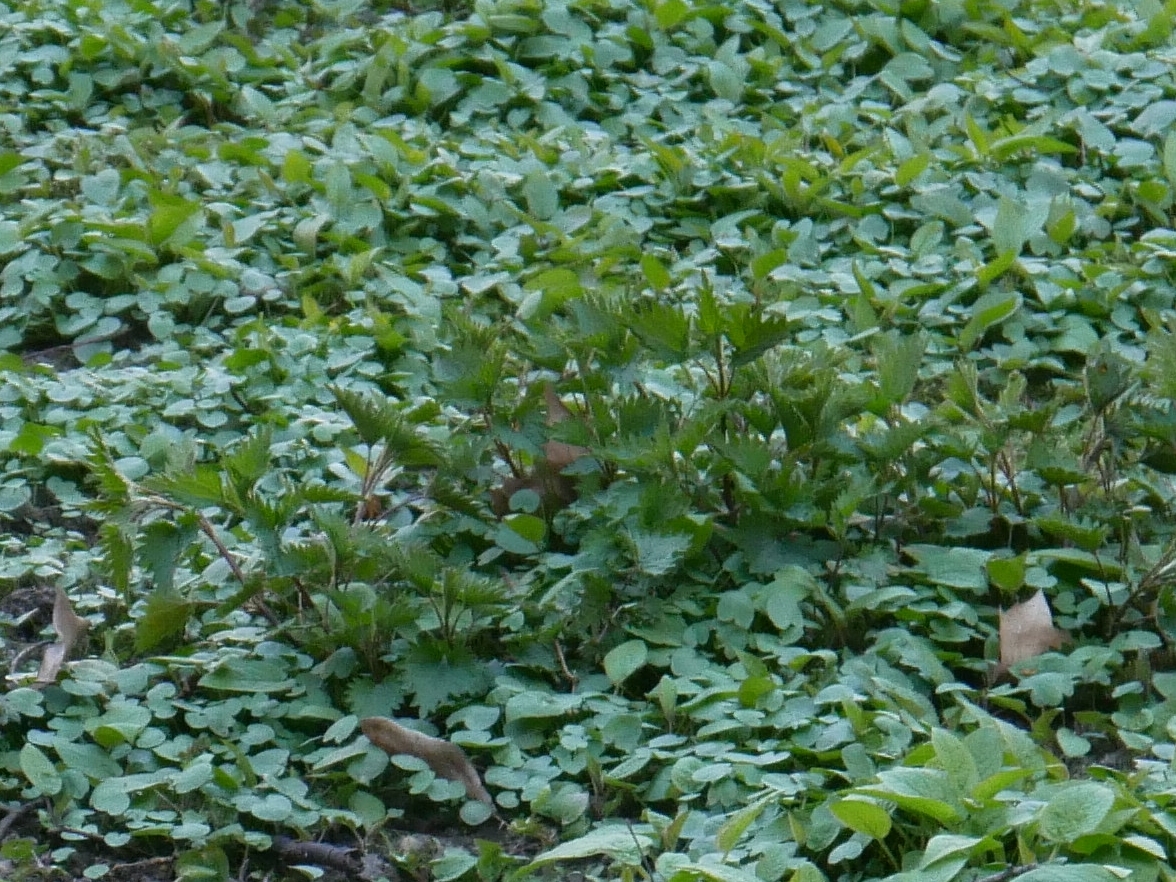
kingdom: Plantae
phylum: Tracheophyta
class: Magnoliopsida
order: Rosales
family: Urticaceae
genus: Urtica
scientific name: Urtica dioica
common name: Common nettle
